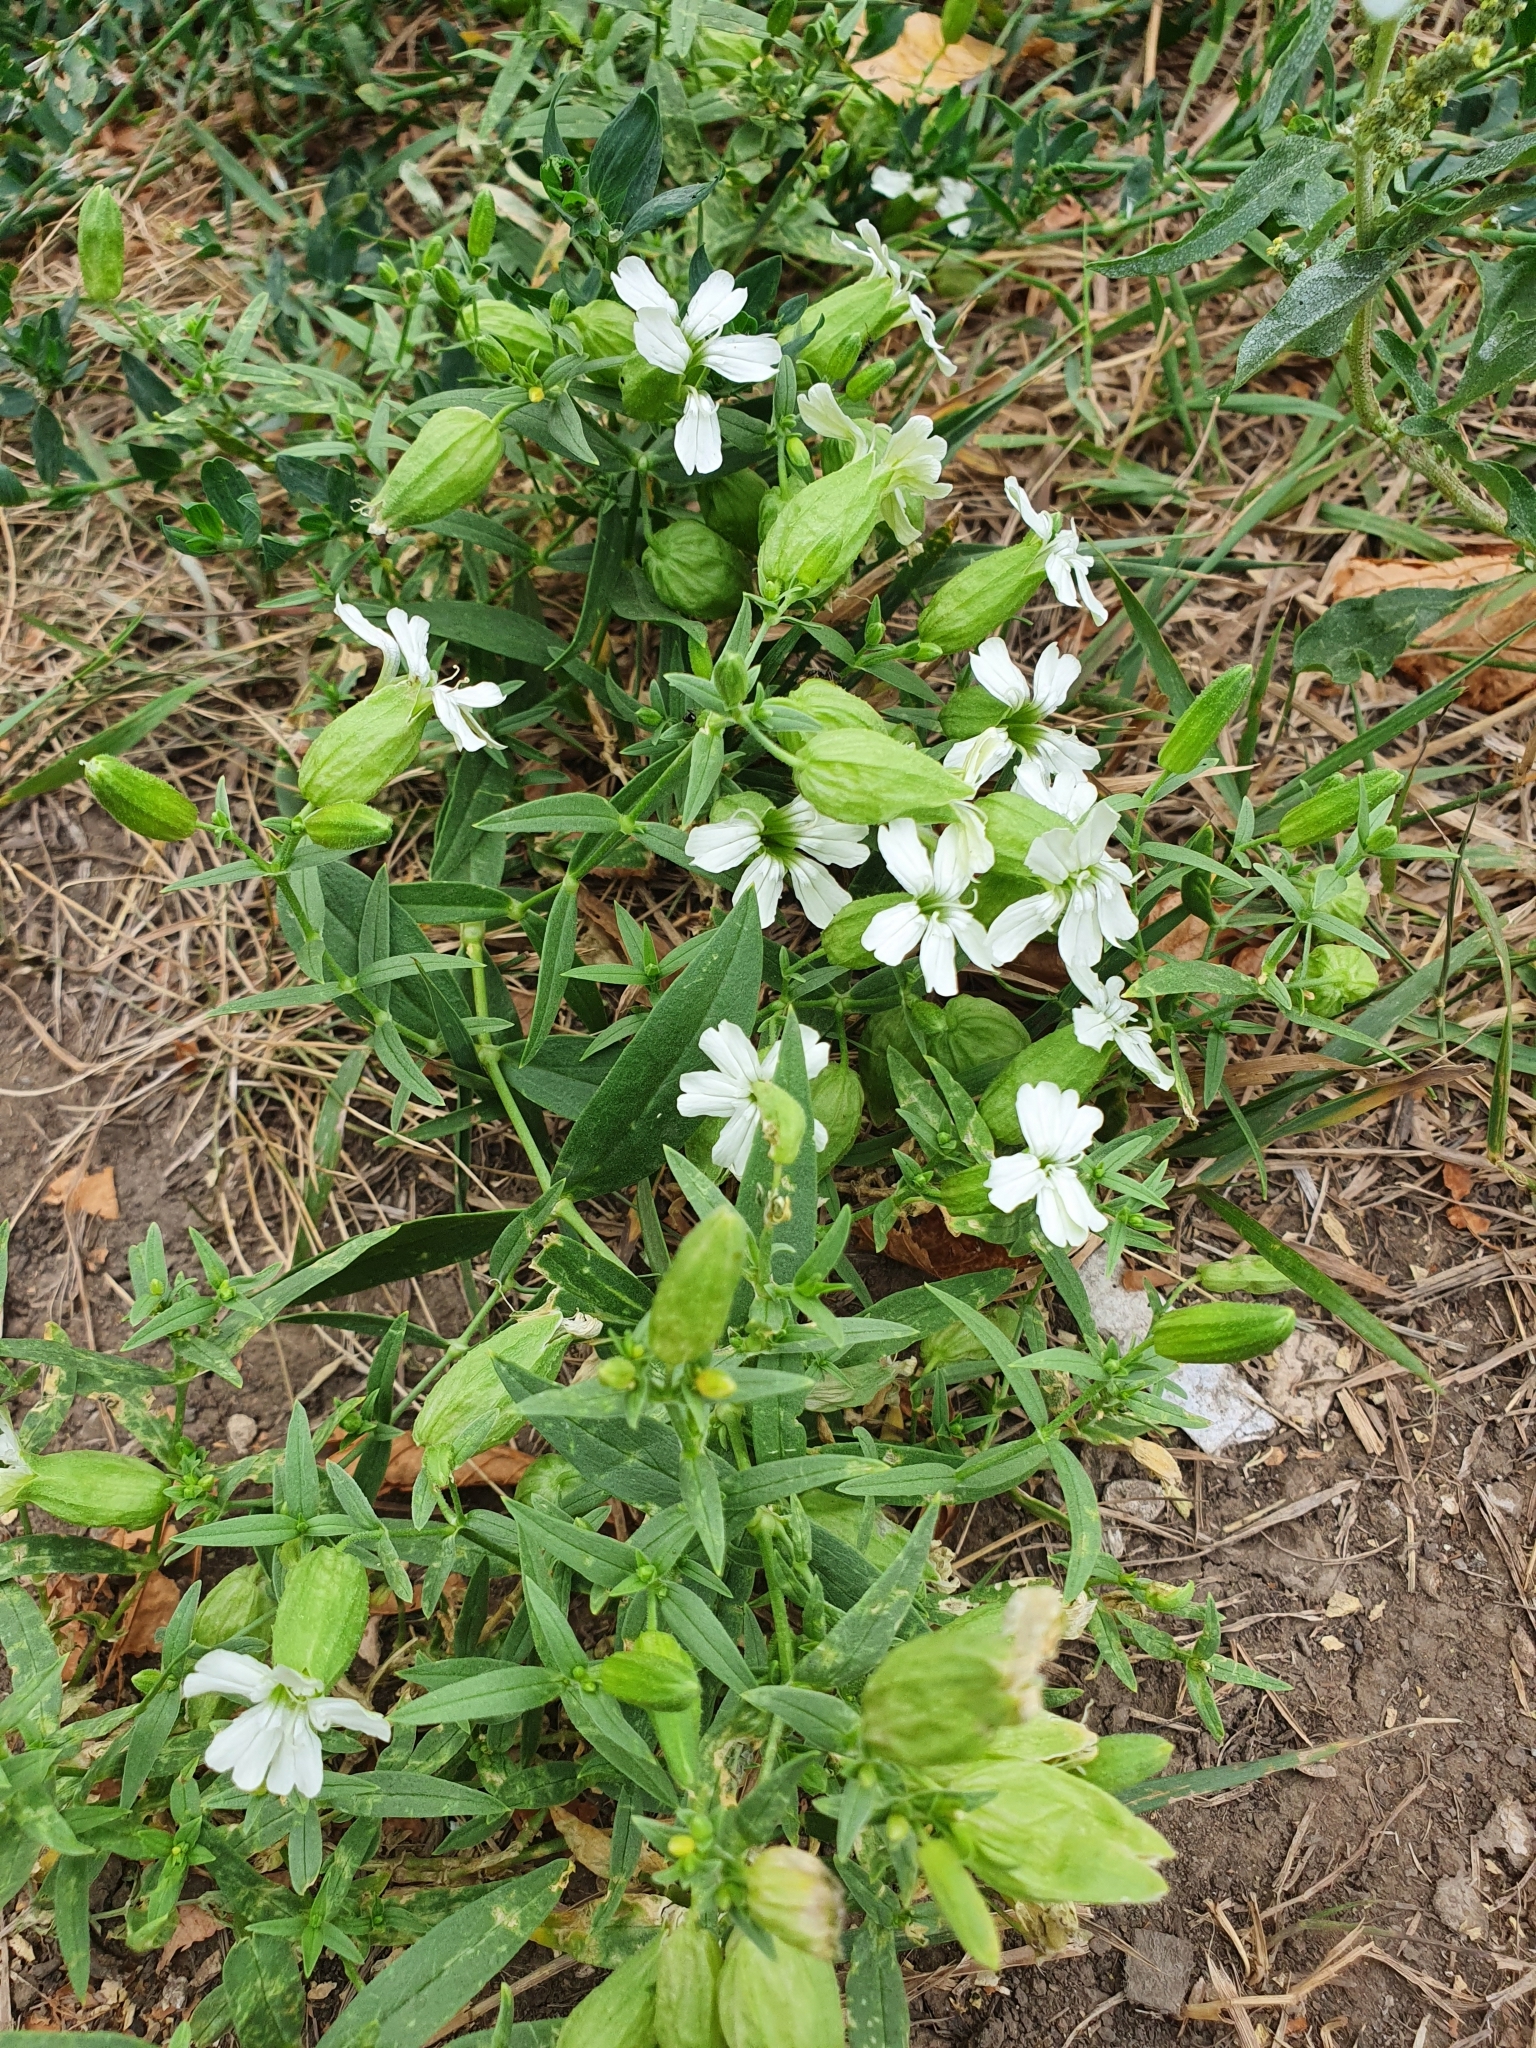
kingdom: Plantae
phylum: Tracheophyta
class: Magnoliopsida
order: Caryophyllales
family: Caryophyllaceae
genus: Silene
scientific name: Silene procumbens
